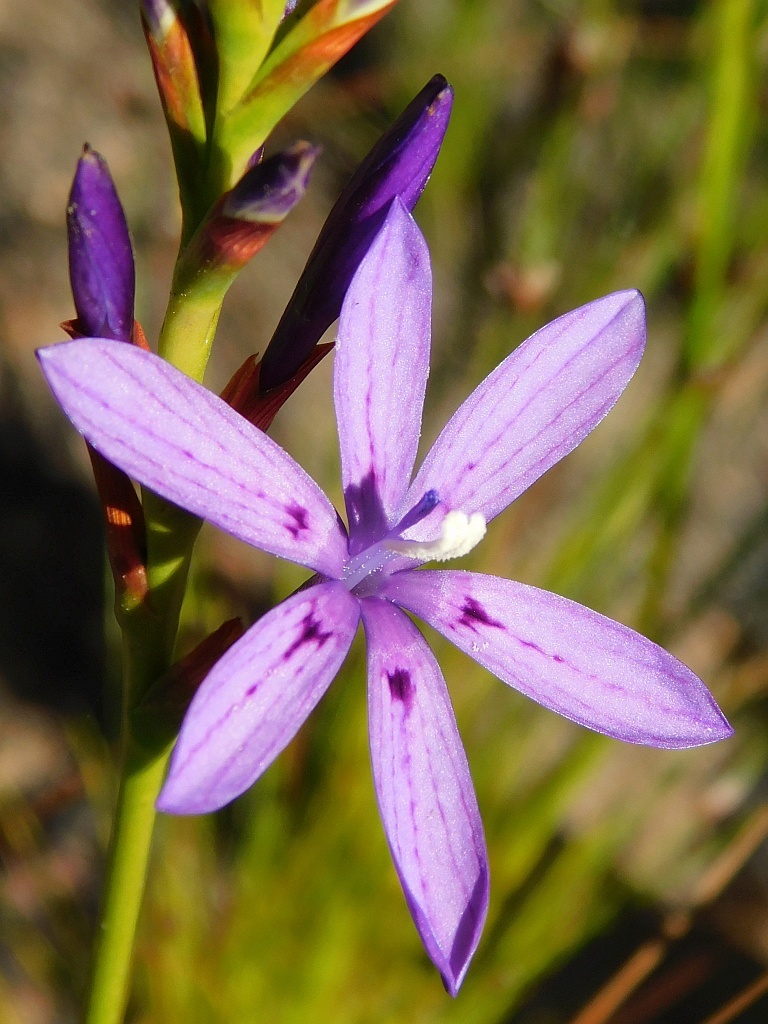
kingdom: Plantae
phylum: Tracheophyta
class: Liliopsida
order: Asparagales
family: Iridaceae
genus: Thereianthus
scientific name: Thereianthus bracteolatus
